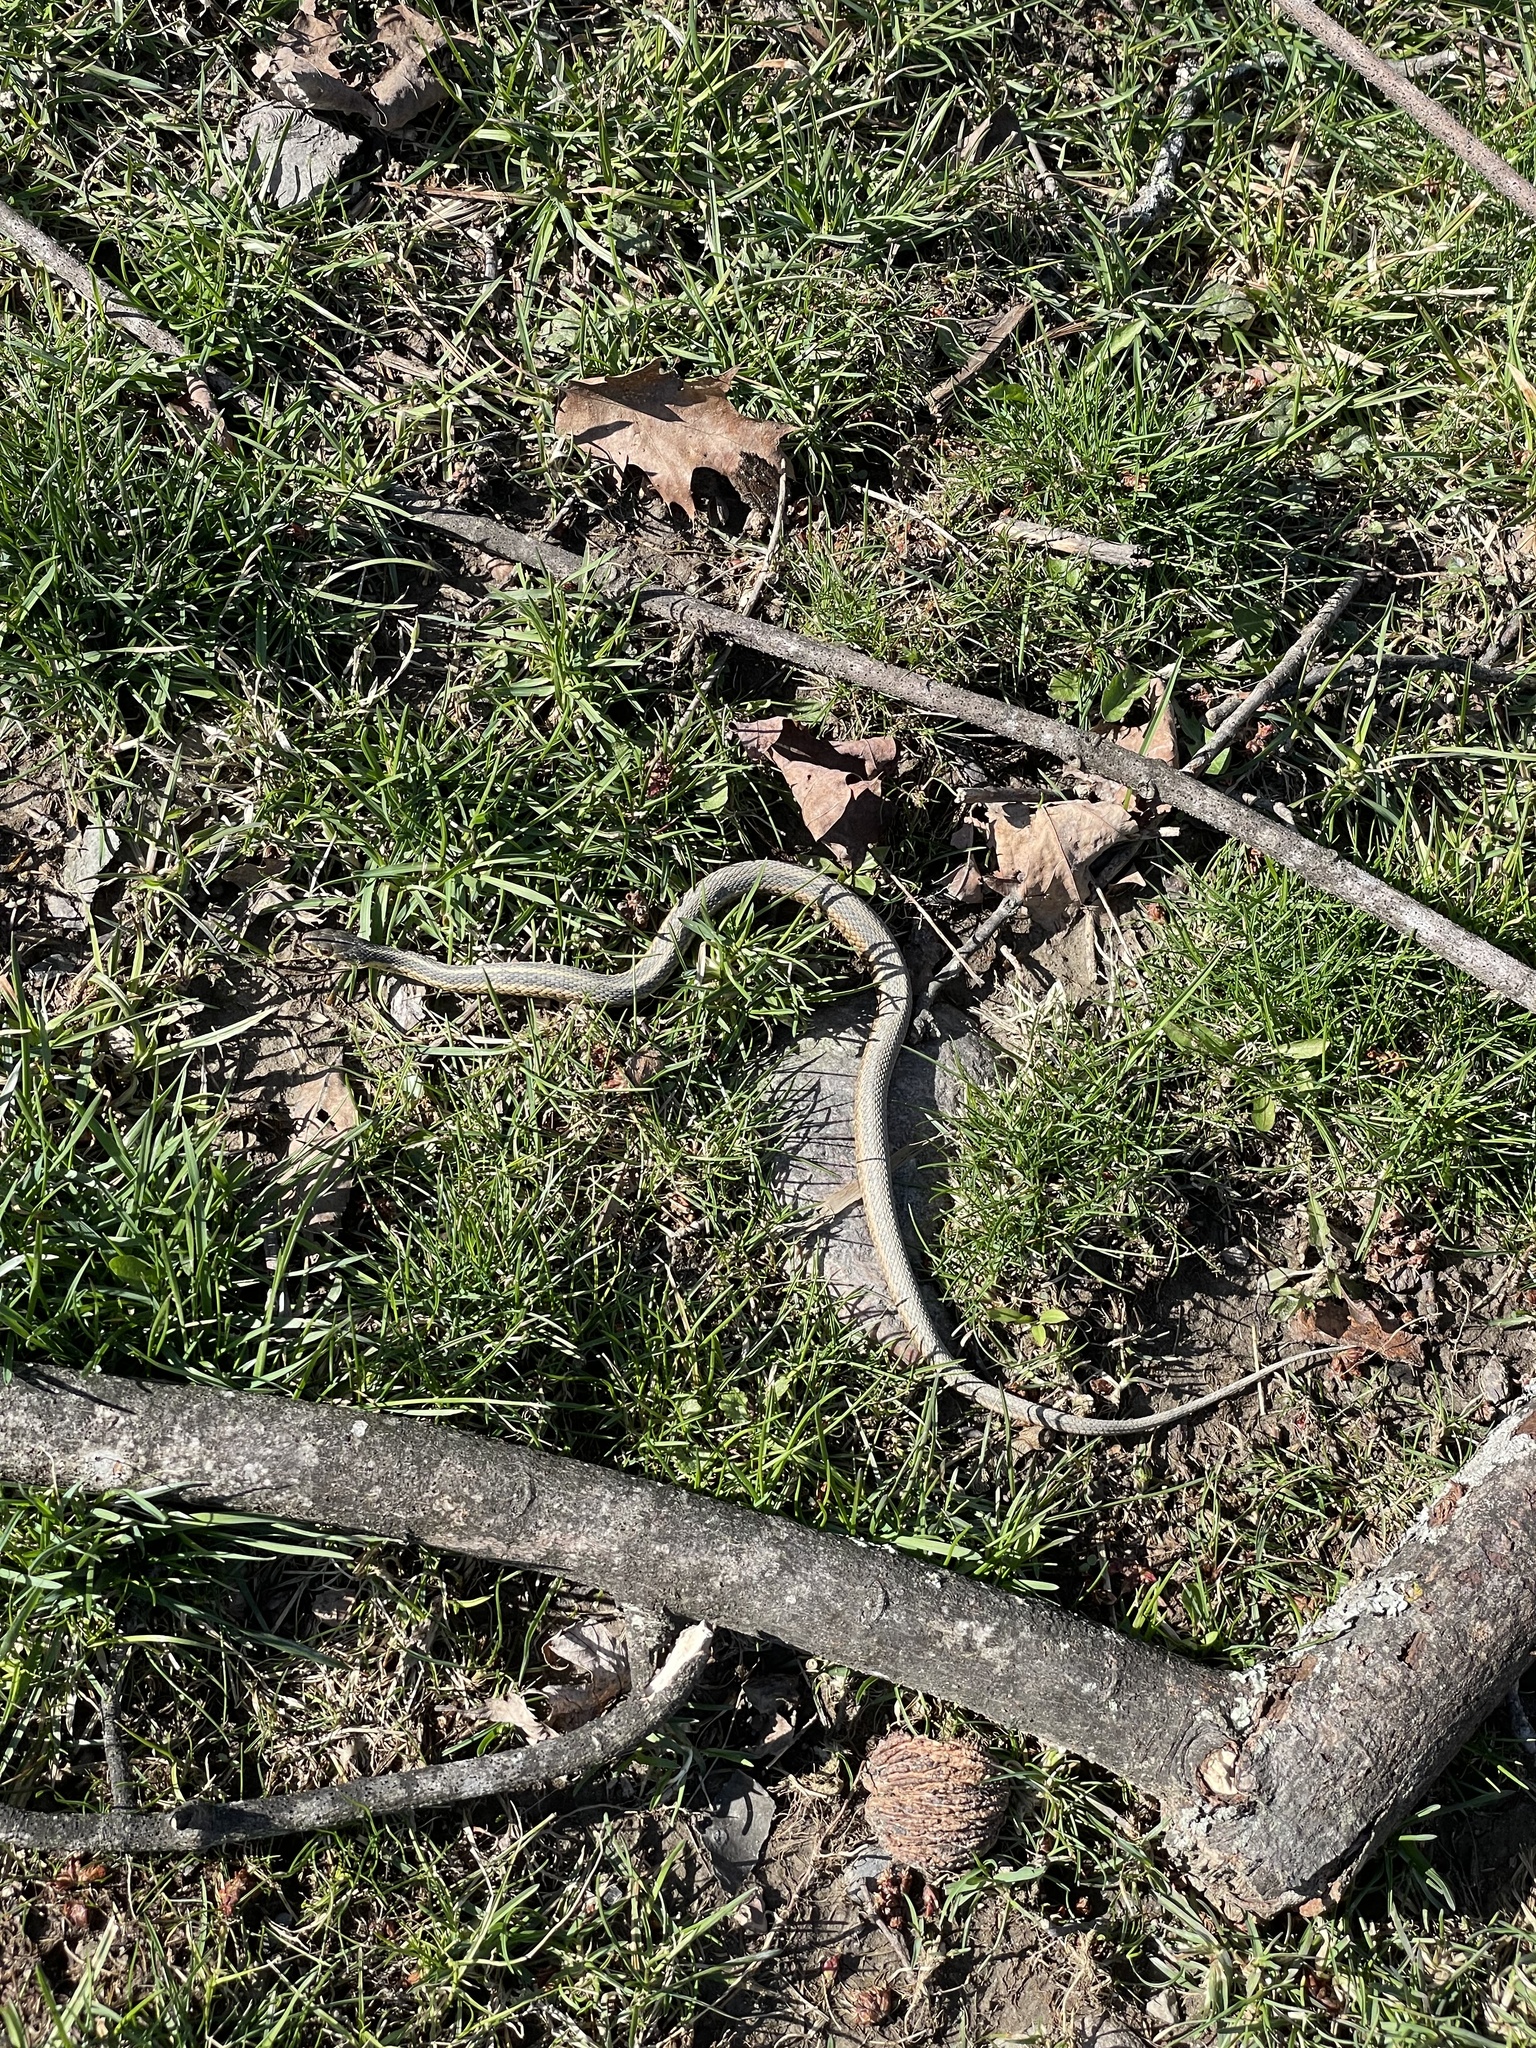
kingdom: Animalia
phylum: Chordata
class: Squamata
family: Colubridae
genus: Thamnophis
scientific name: Thamnophis sirtalis
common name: Common garter snake
